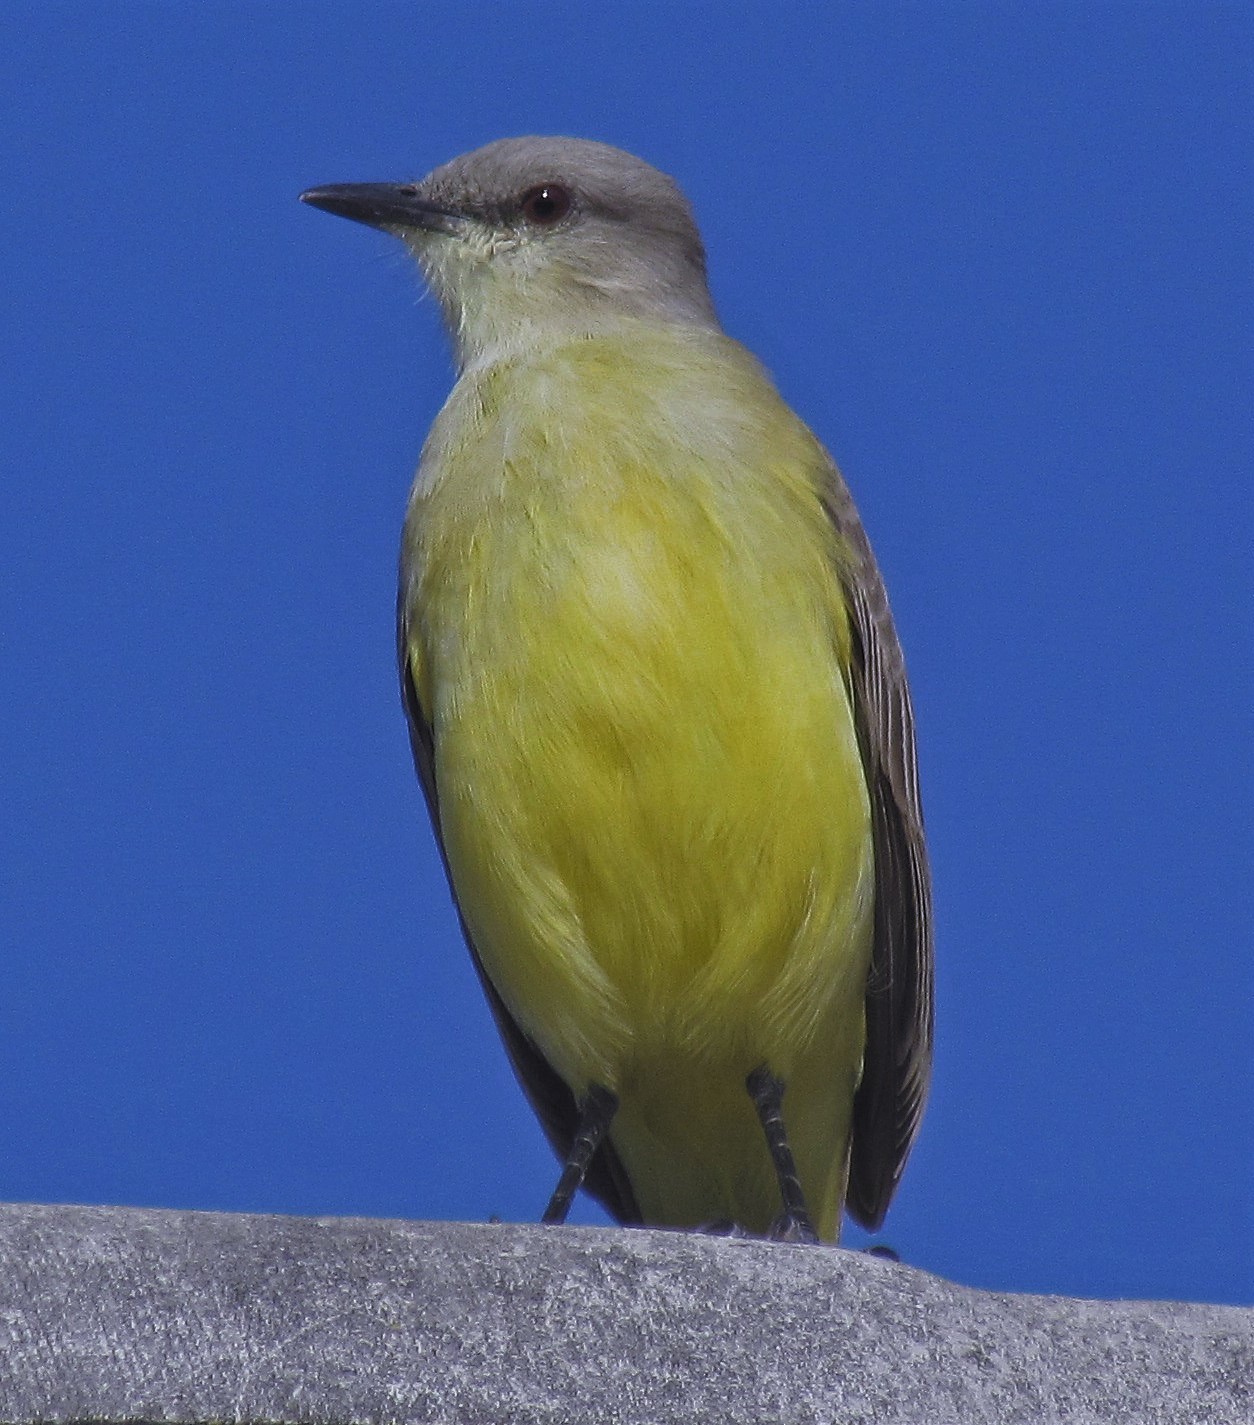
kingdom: Animalia
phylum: Chordata
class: Aves
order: Passeriformes
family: Tyrannidae
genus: Machetornis
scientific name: Machetornis rixosa
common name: Cattle tyrant
